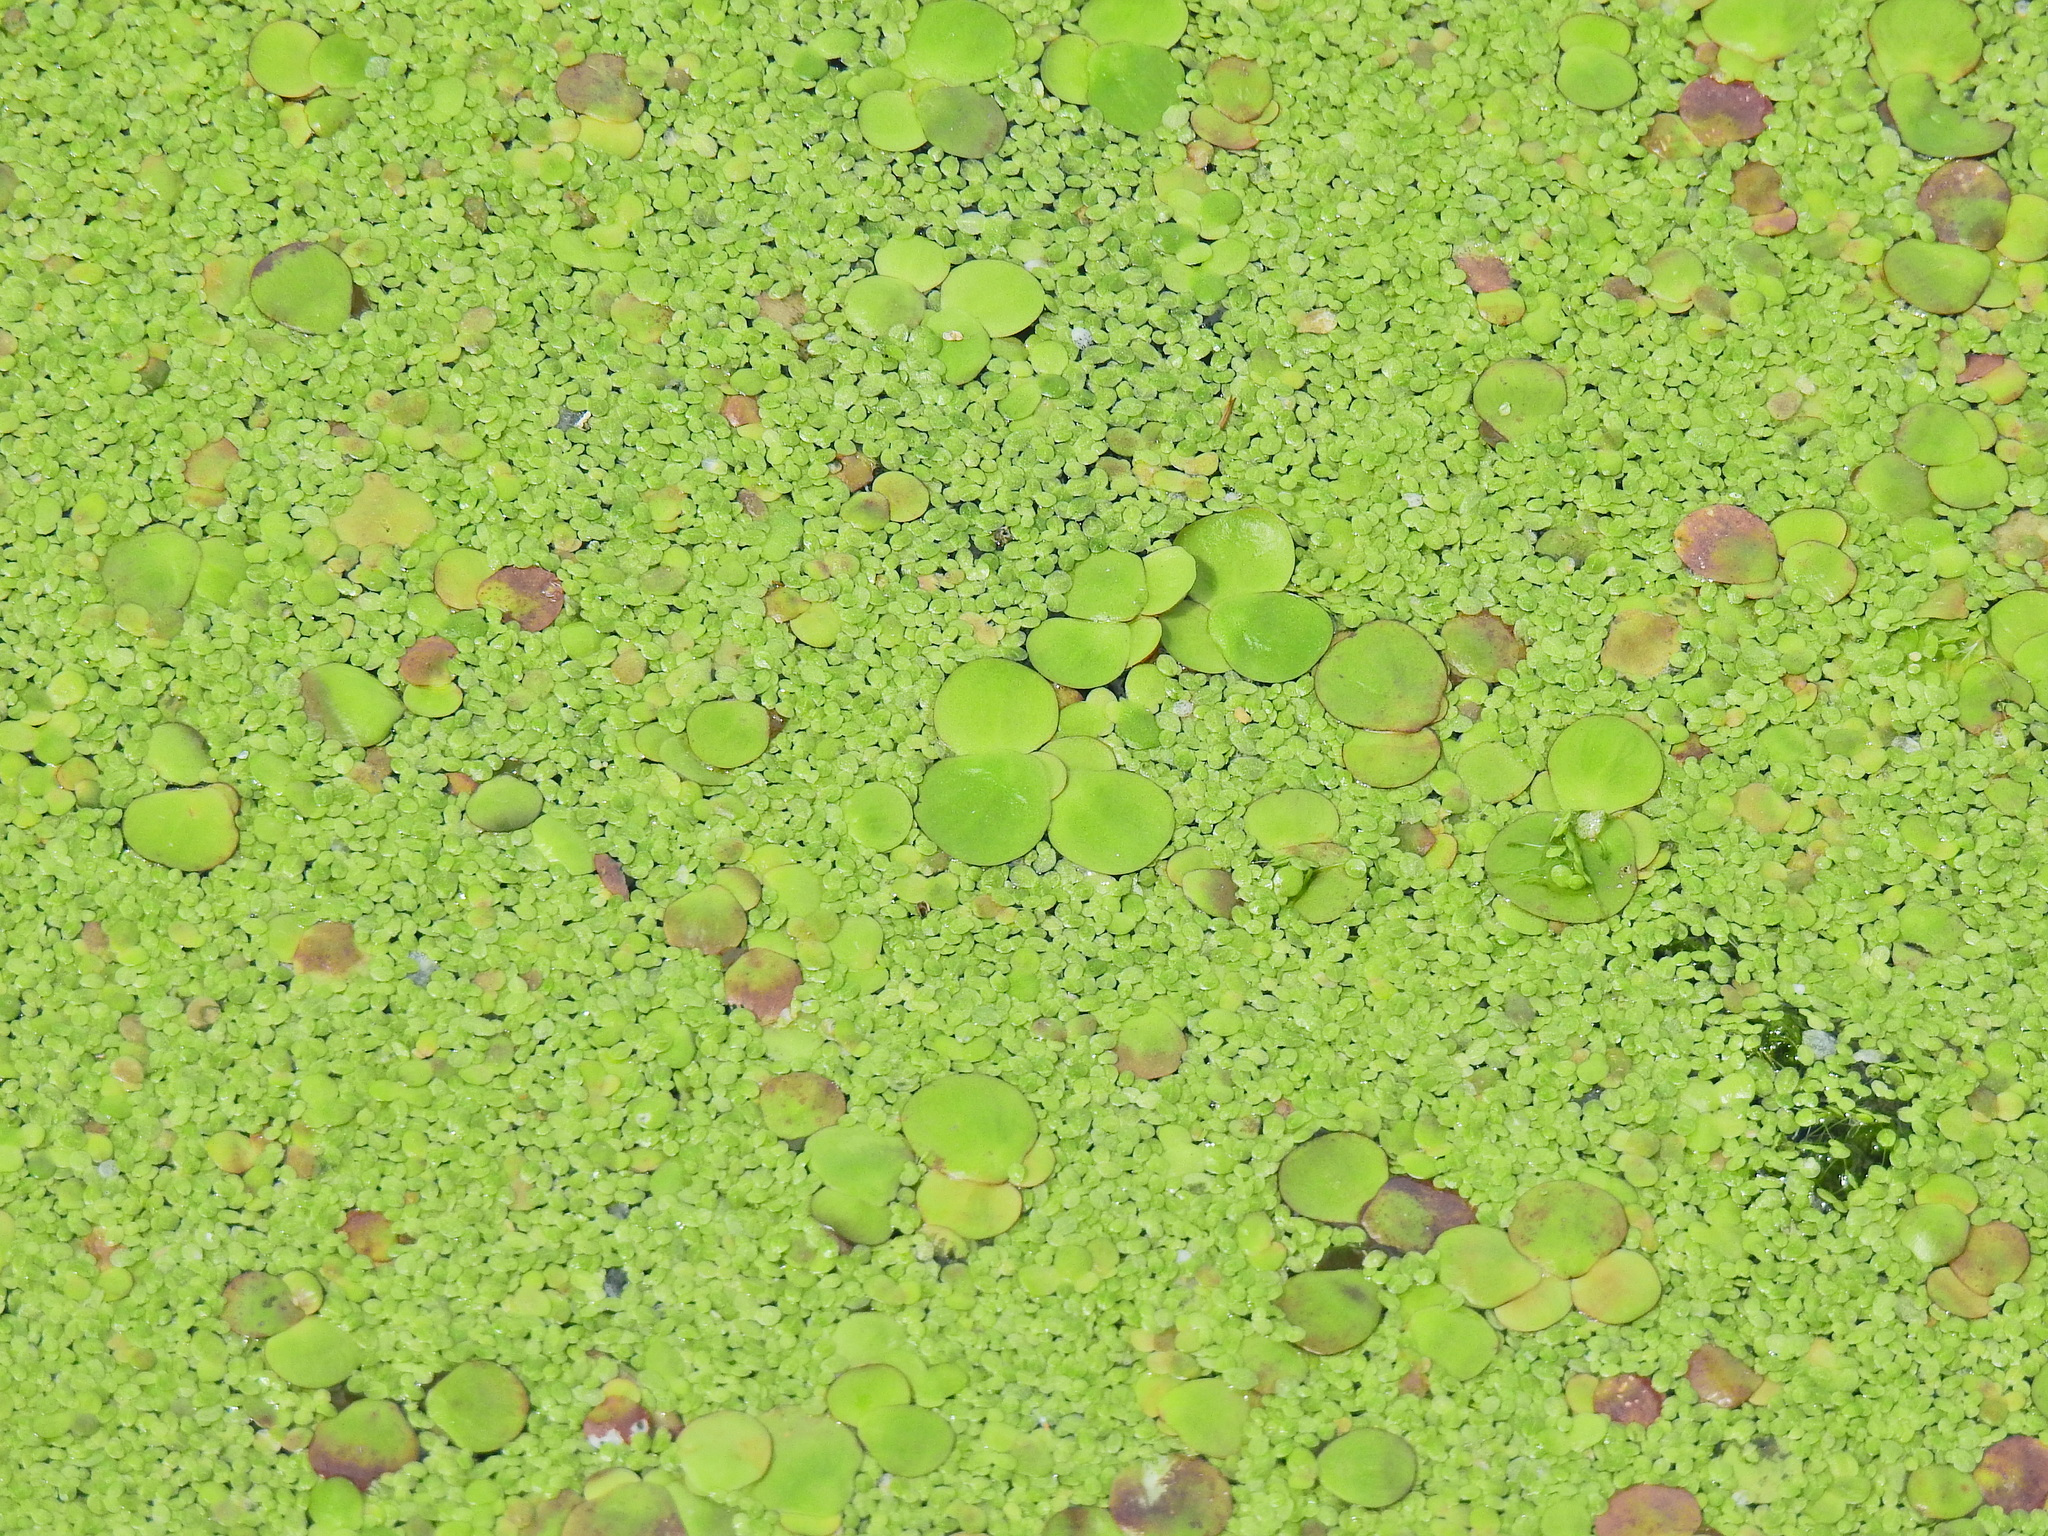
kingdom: Plantae
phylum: Tracheophyta
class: Liliopsida
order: Alismatales
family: Araceae
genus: Spirodela
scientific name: Spirodela polyrhiza
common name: Great duckweed
